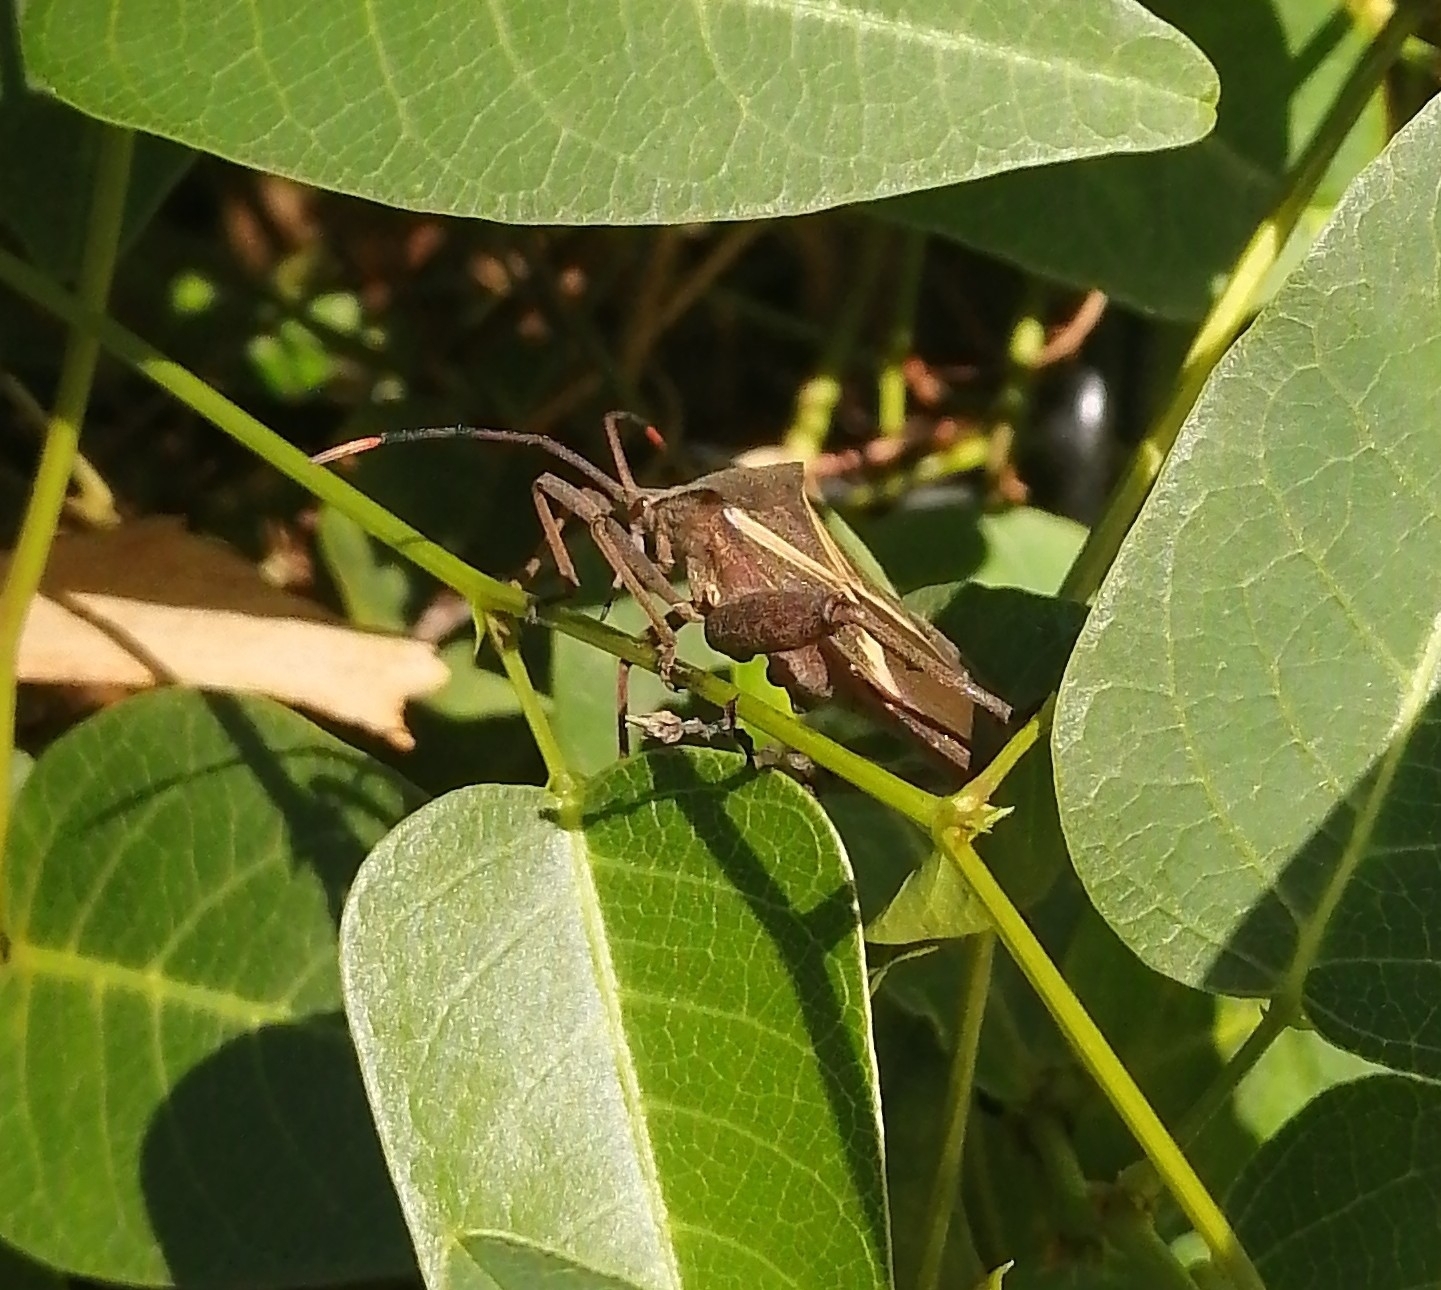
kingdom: Animalia
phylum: Arthropoda
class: Insecta
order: Hemiptera
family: Coreidae
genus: Mictis
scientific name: Mictis profana
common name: Crusader bug
